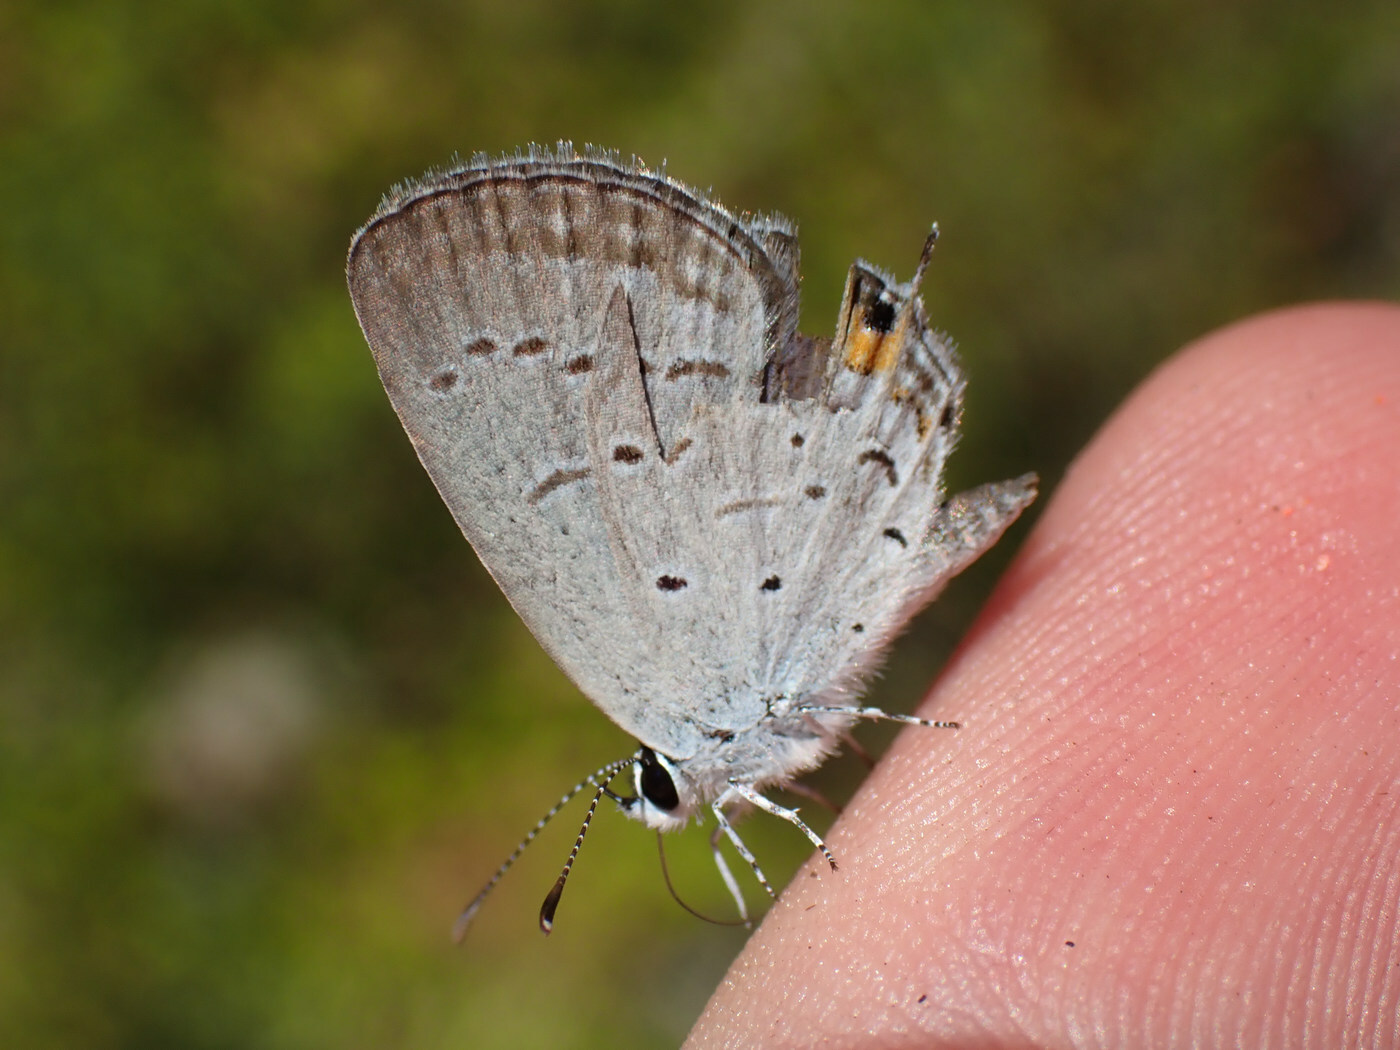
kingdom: Animalia
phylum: Arthropoda
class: Insecta
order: Lepidoptera
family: Lycaenidae
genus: Elkalyce
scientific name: Elkalyce comyntas
